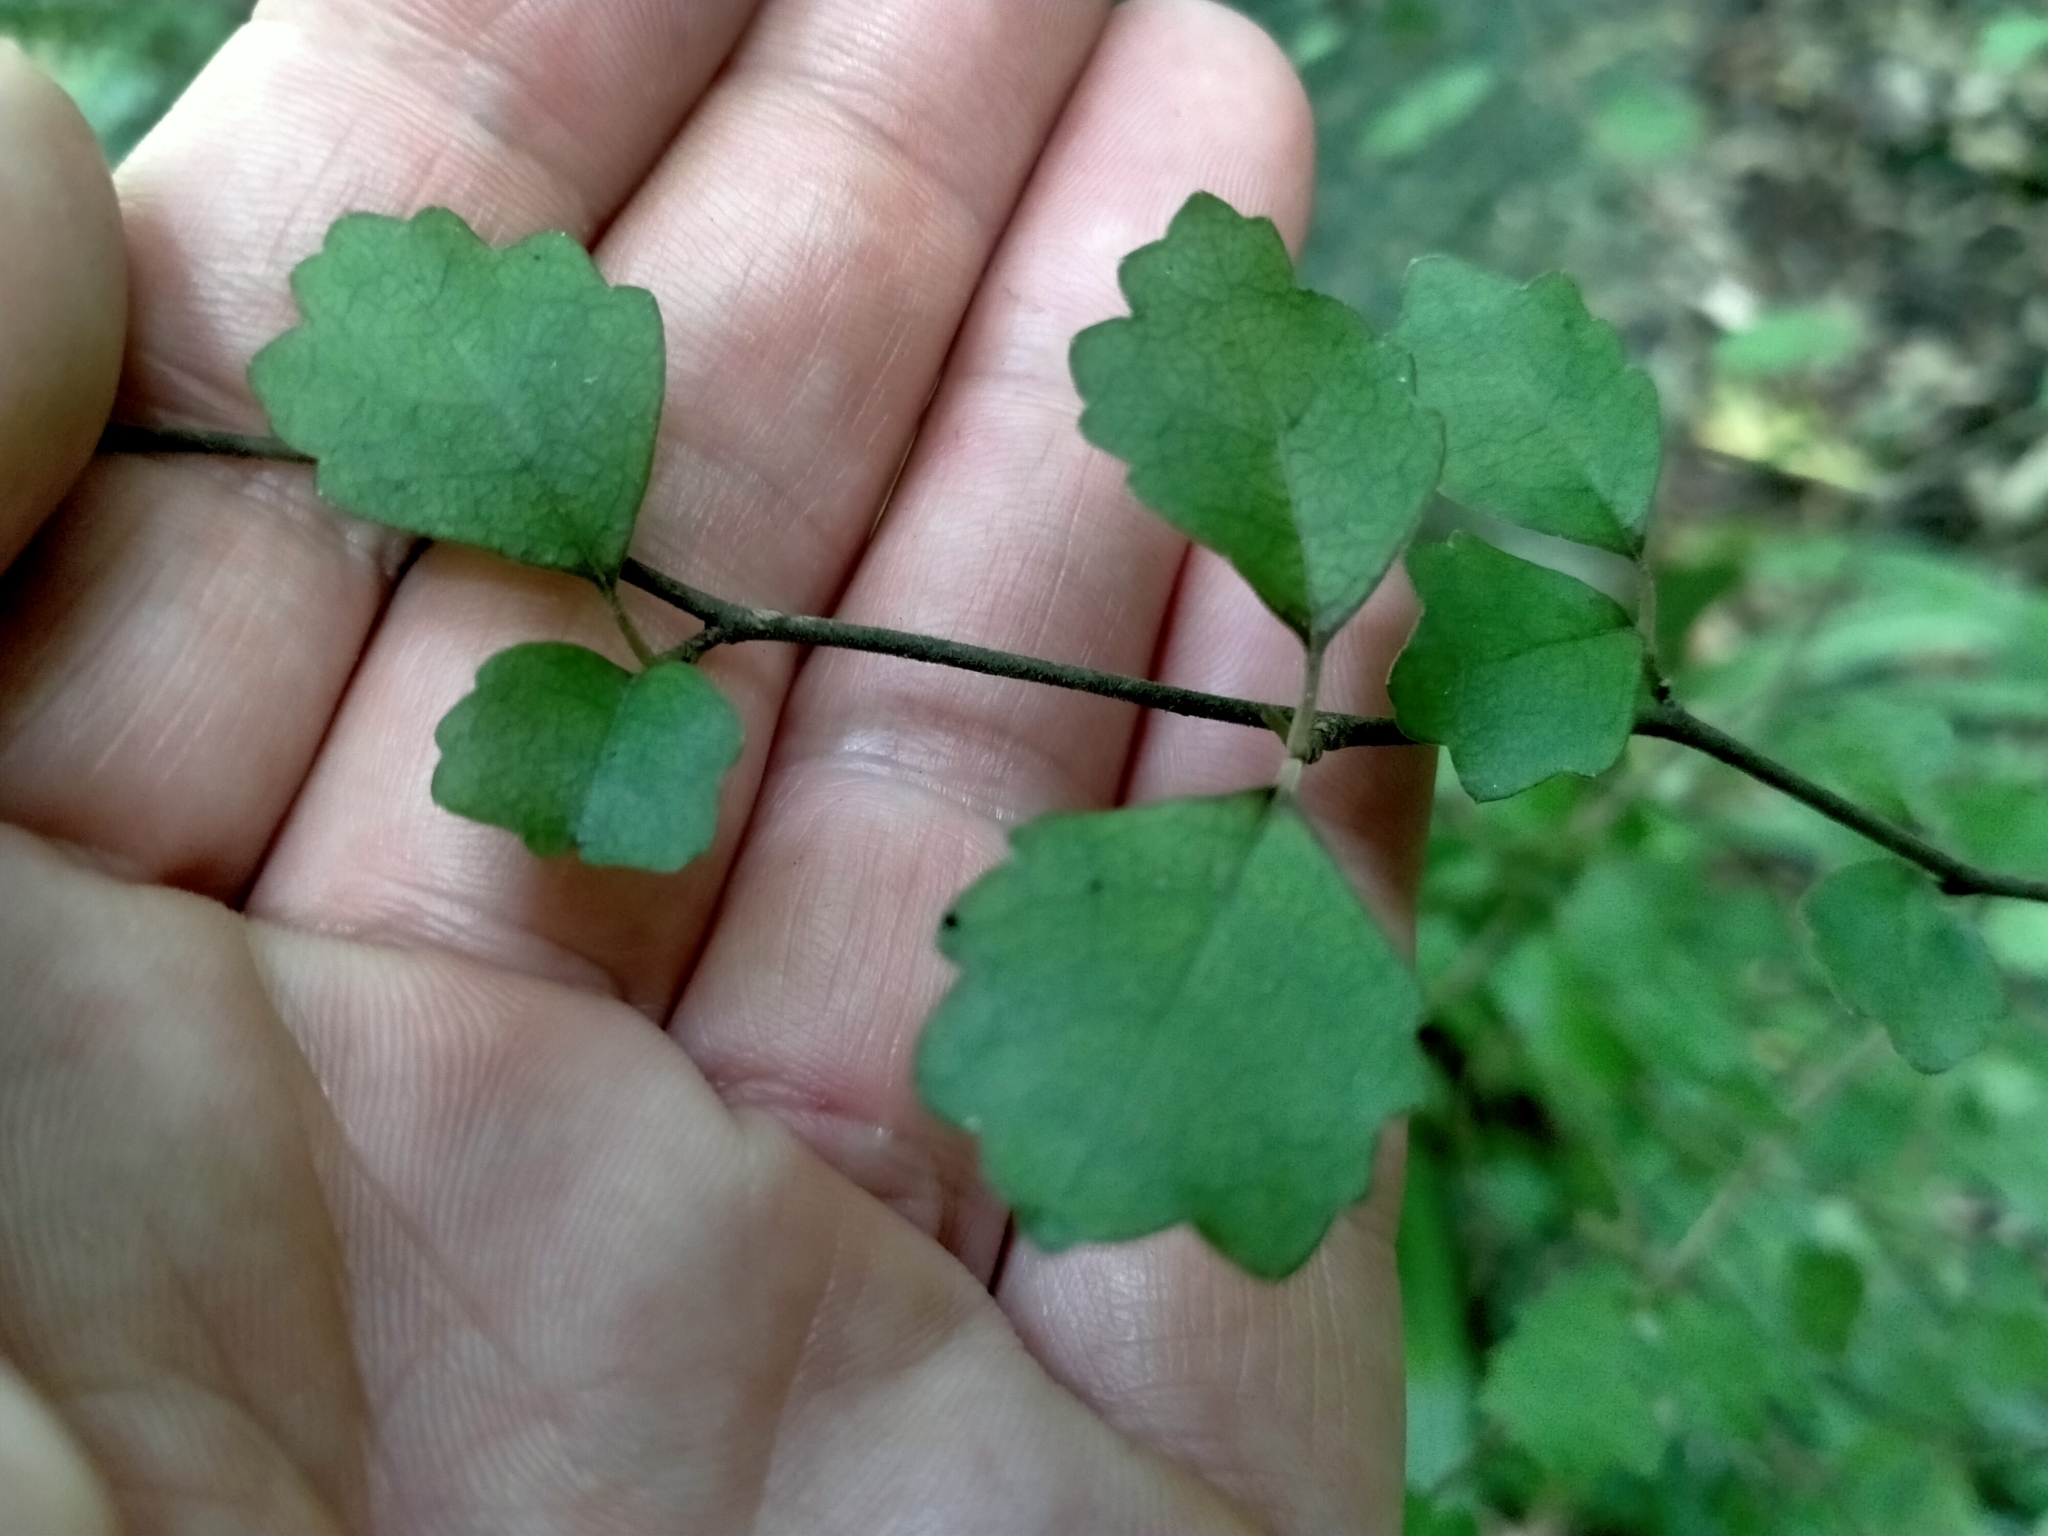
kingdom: Plantae
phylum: Tracheophyta
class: Magnoliopsida
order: Apiales
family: Pennantiaceae
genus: Pennantia
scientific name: Pennantia corymbosa
